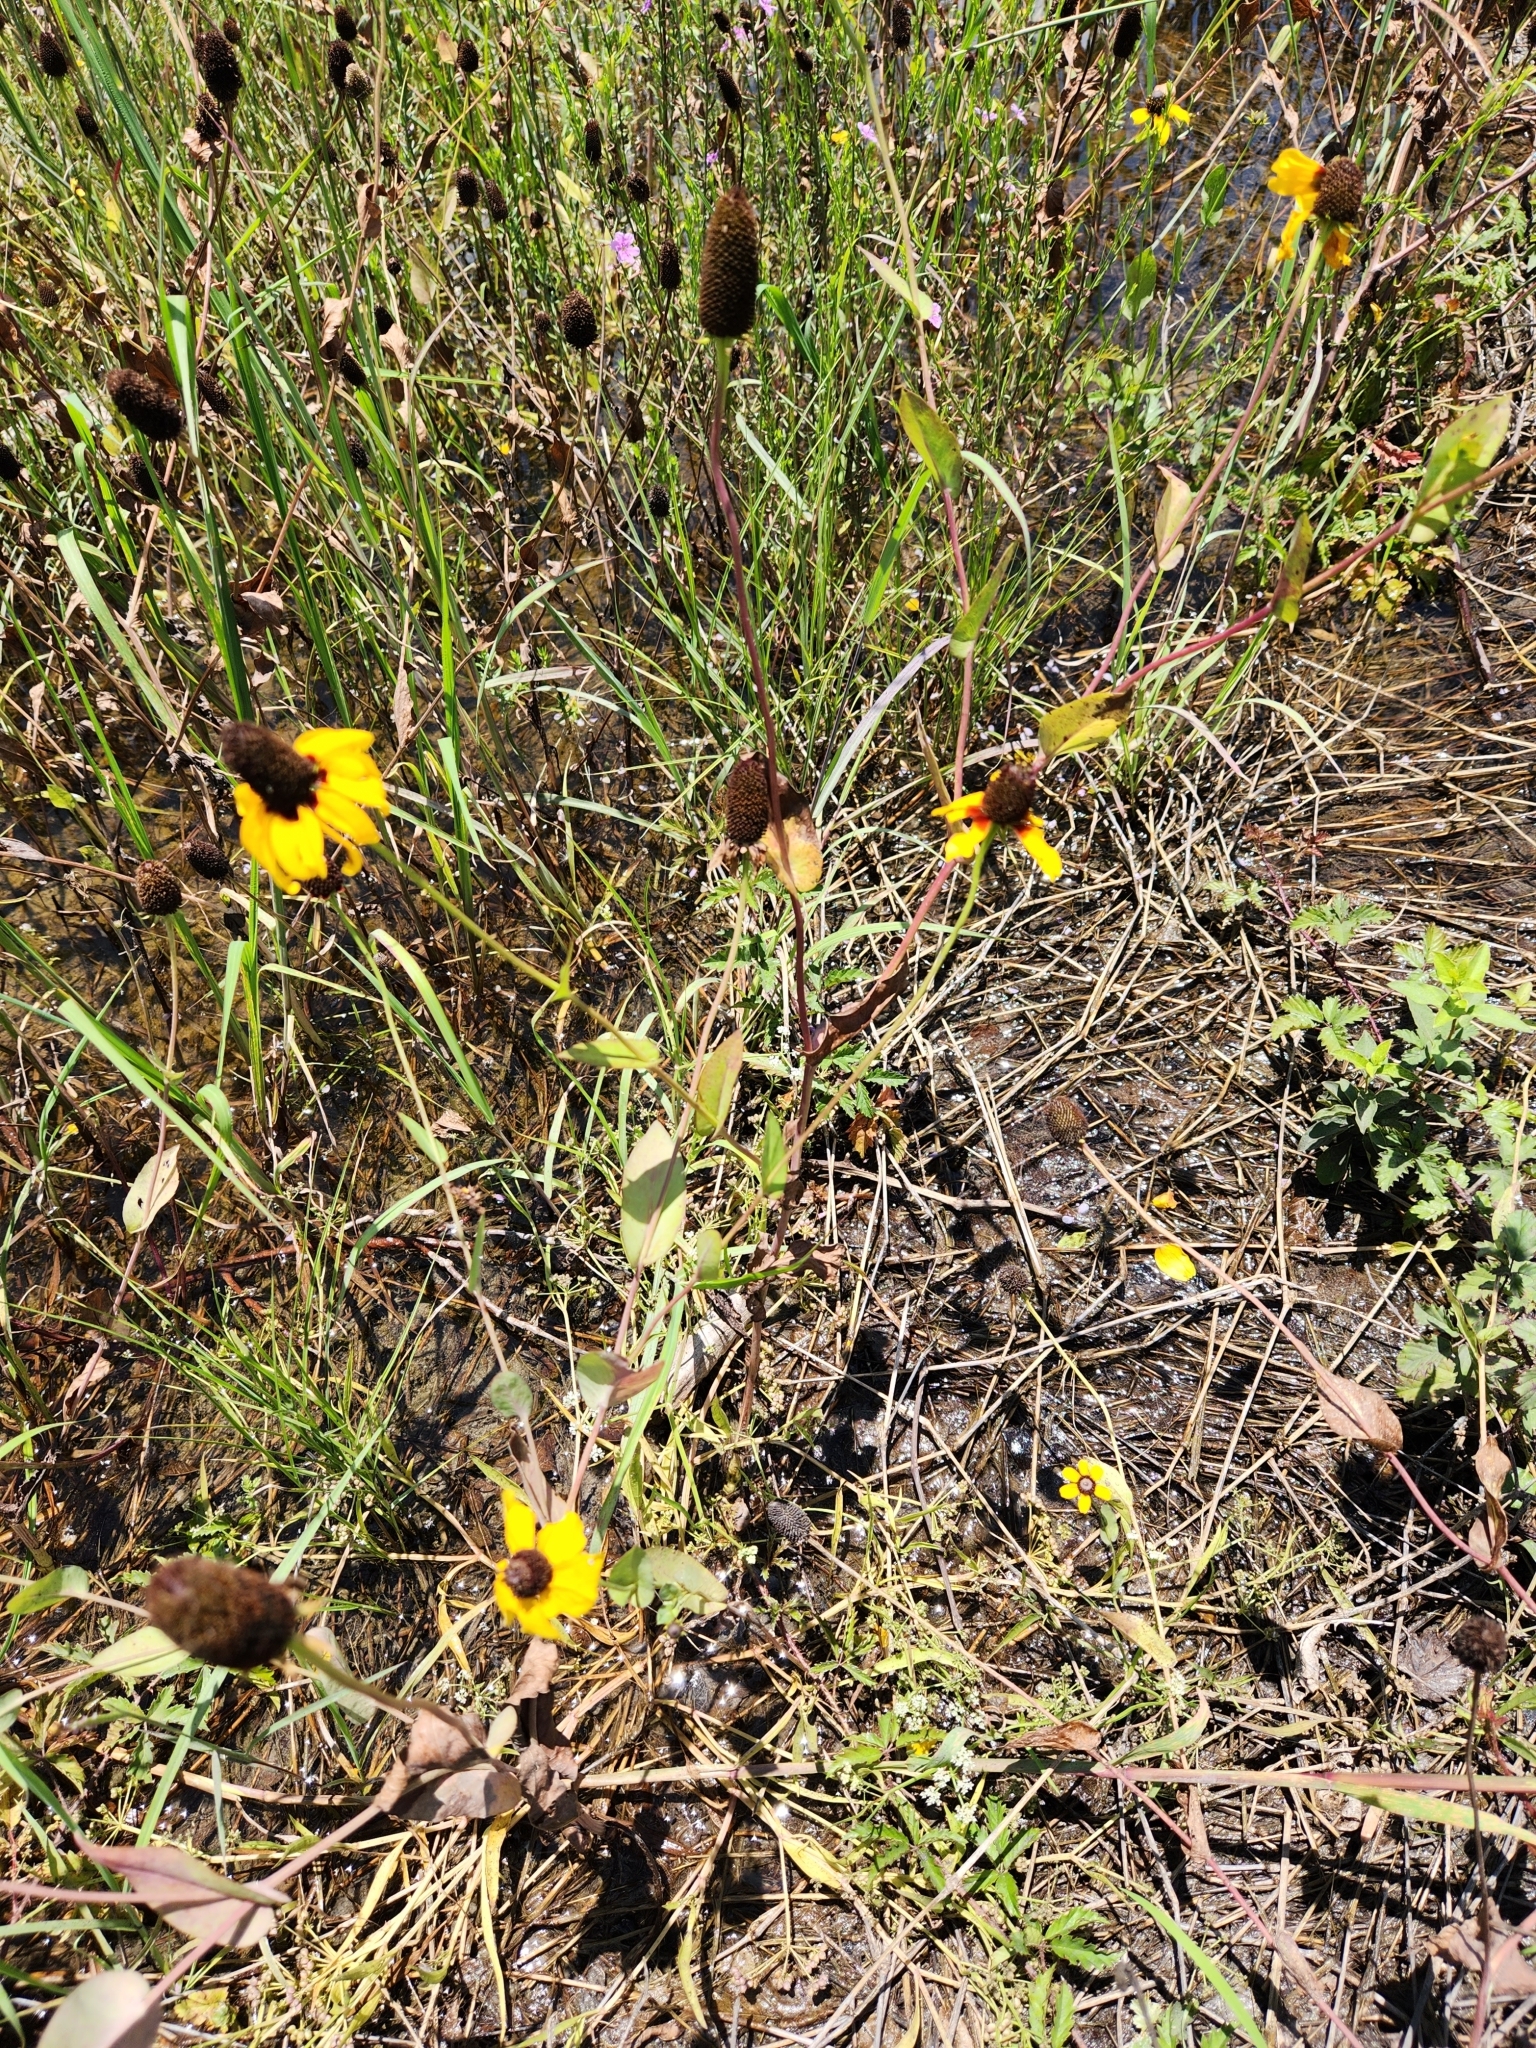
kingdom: Plantae
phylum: Tracheophyta
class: Magnoliopsida
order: Asterales
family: Asteraceae
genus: Rudbeckia
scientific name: Rudbeckia amplexicaulis
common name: Clasping-leaf coneflower
